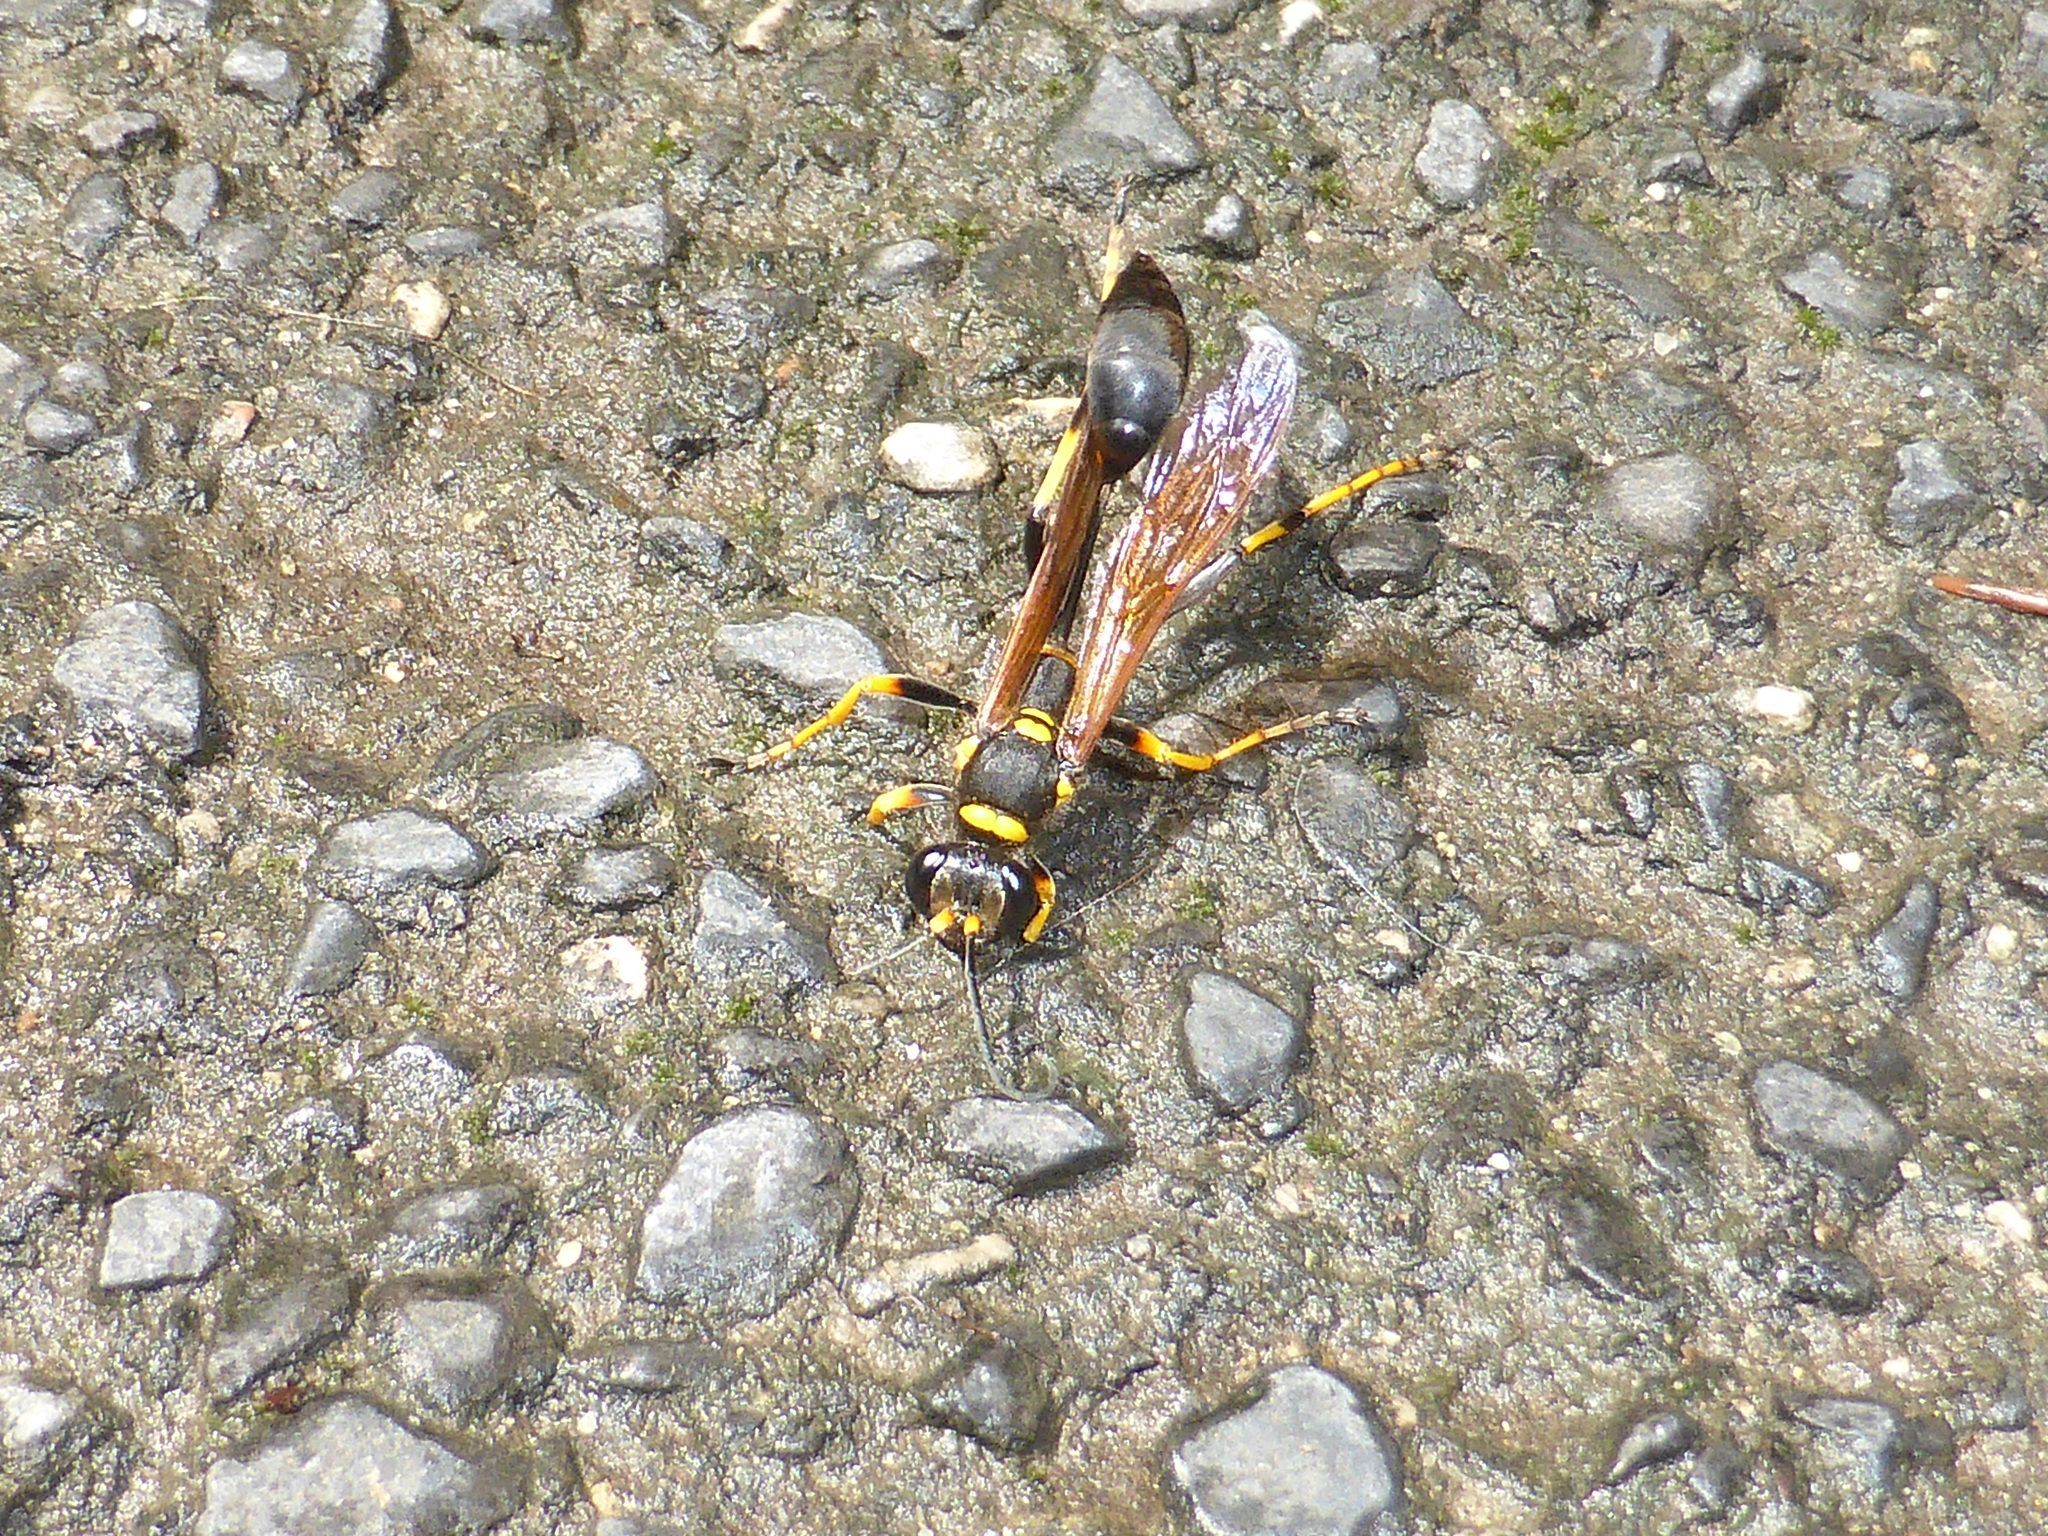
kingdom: Animalia
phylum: Arthropoda
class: Insecta
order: Hymenoptera
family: Sphecidae
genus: Sceliphron
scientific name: Sceliphron caementarium
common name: Mud dauber
